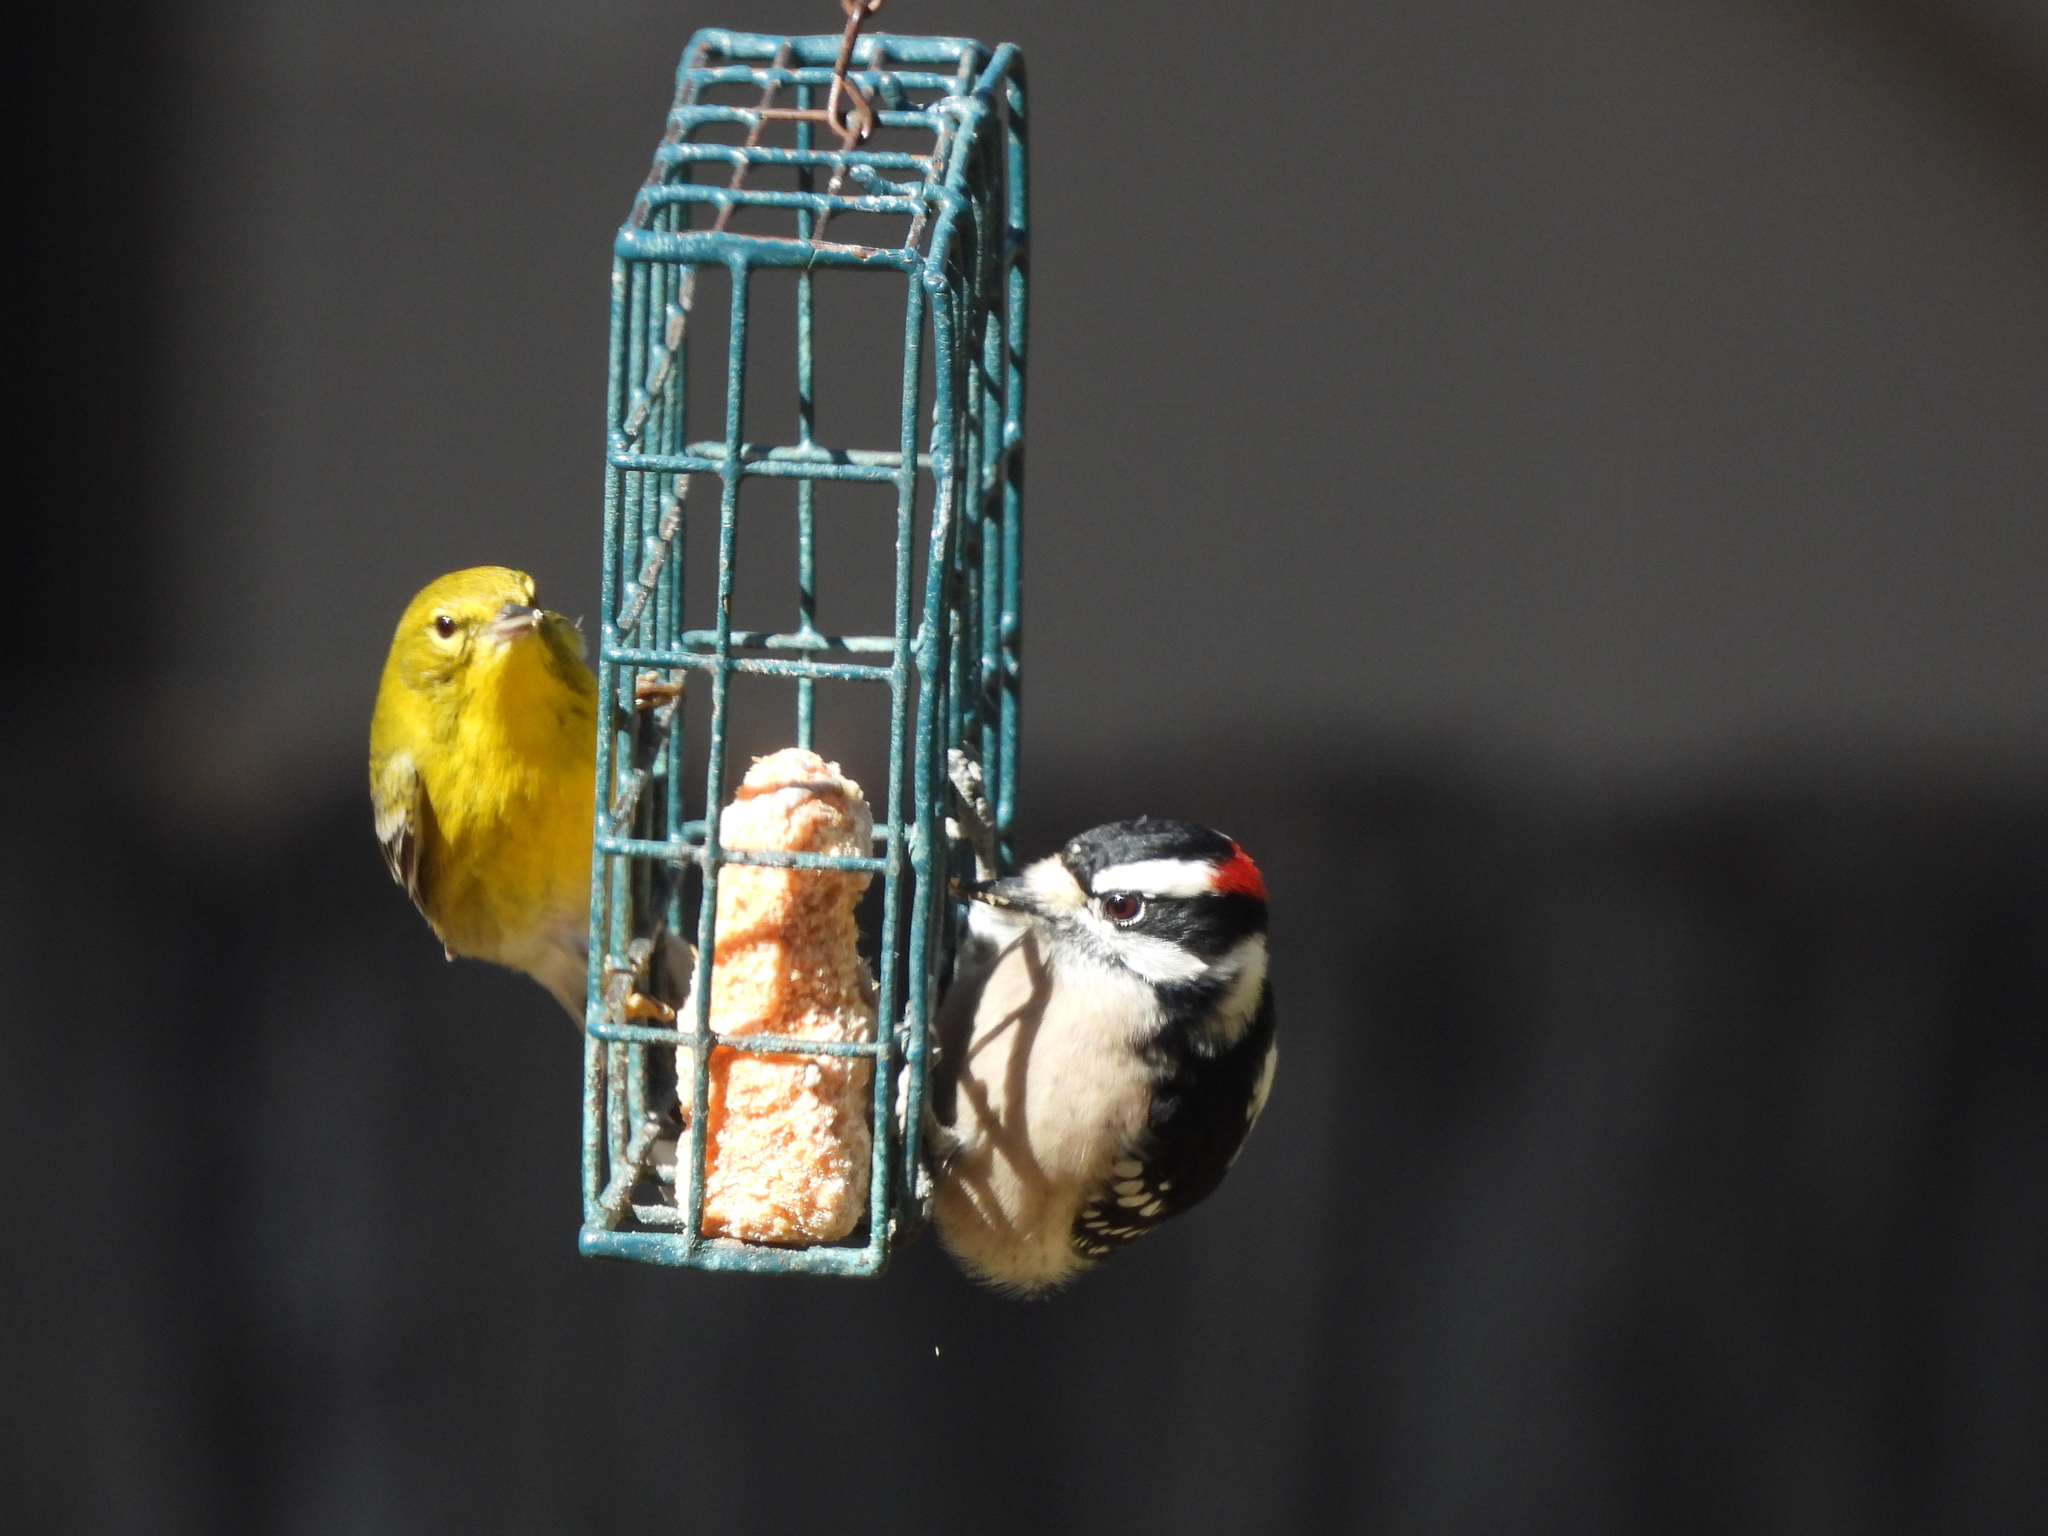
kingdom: Animalia
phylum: Chordata
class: Aves
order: Passeriformes
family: Parulidae
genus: Setophaga
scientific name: Setophaga pinus
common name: Pine warbler
